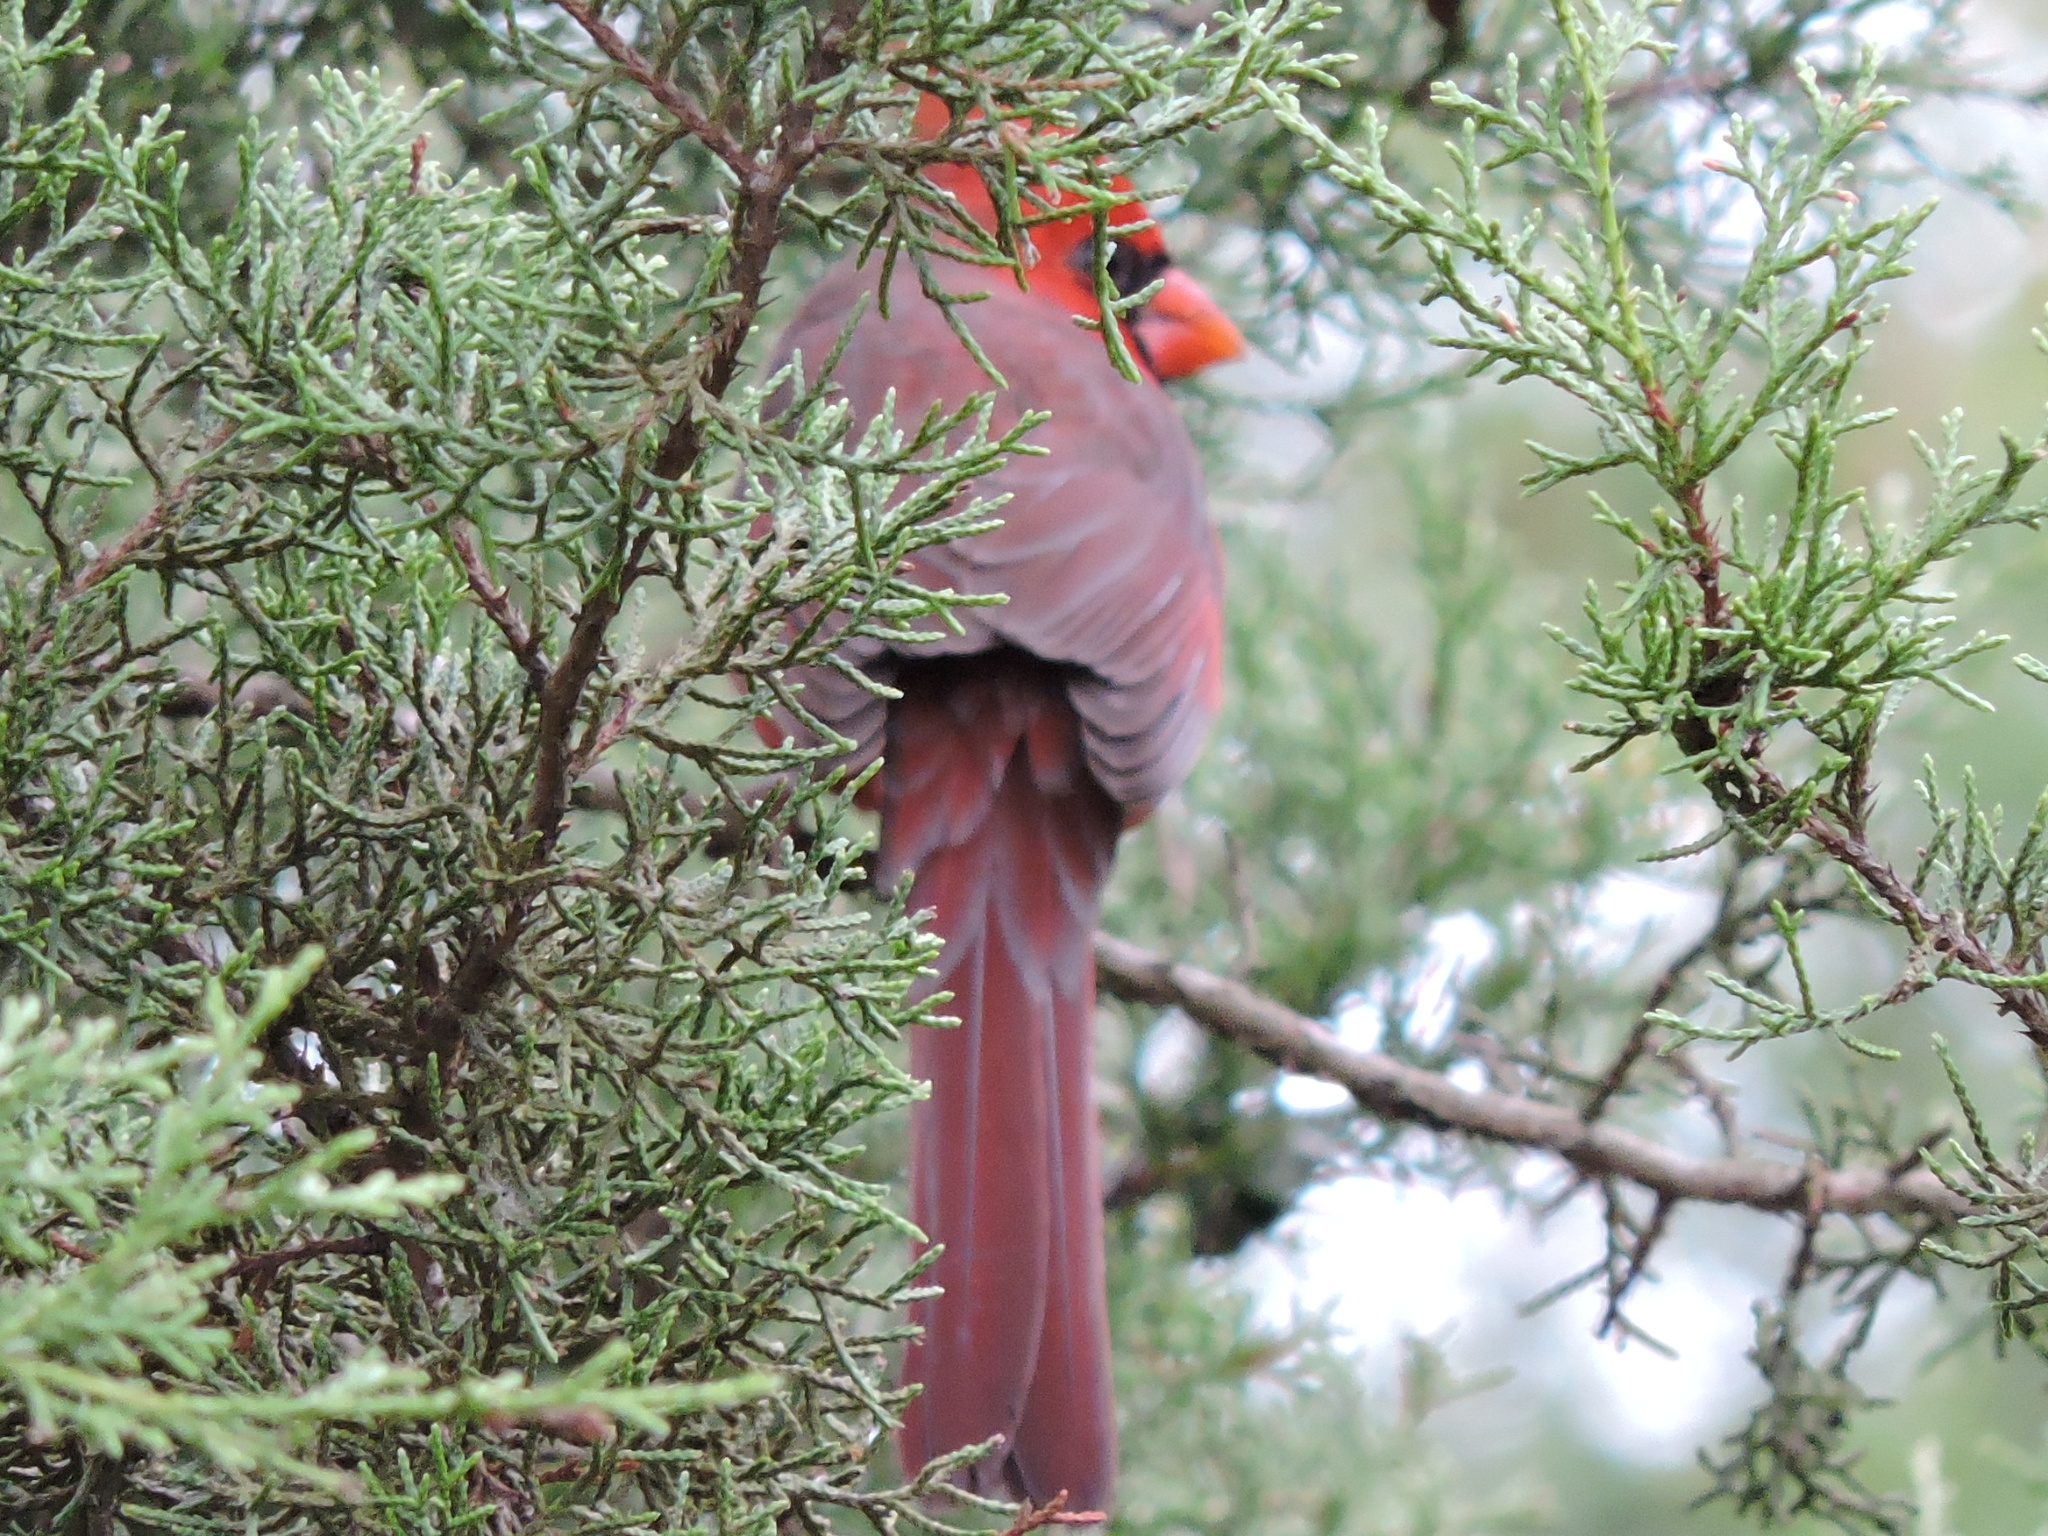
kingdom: Animalia
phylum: Chordata
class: Aves
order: Passeriformes
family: Cardinalidae
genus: Cardinalis
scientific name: Cardinalis cardinalis
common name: Northern cardinal
